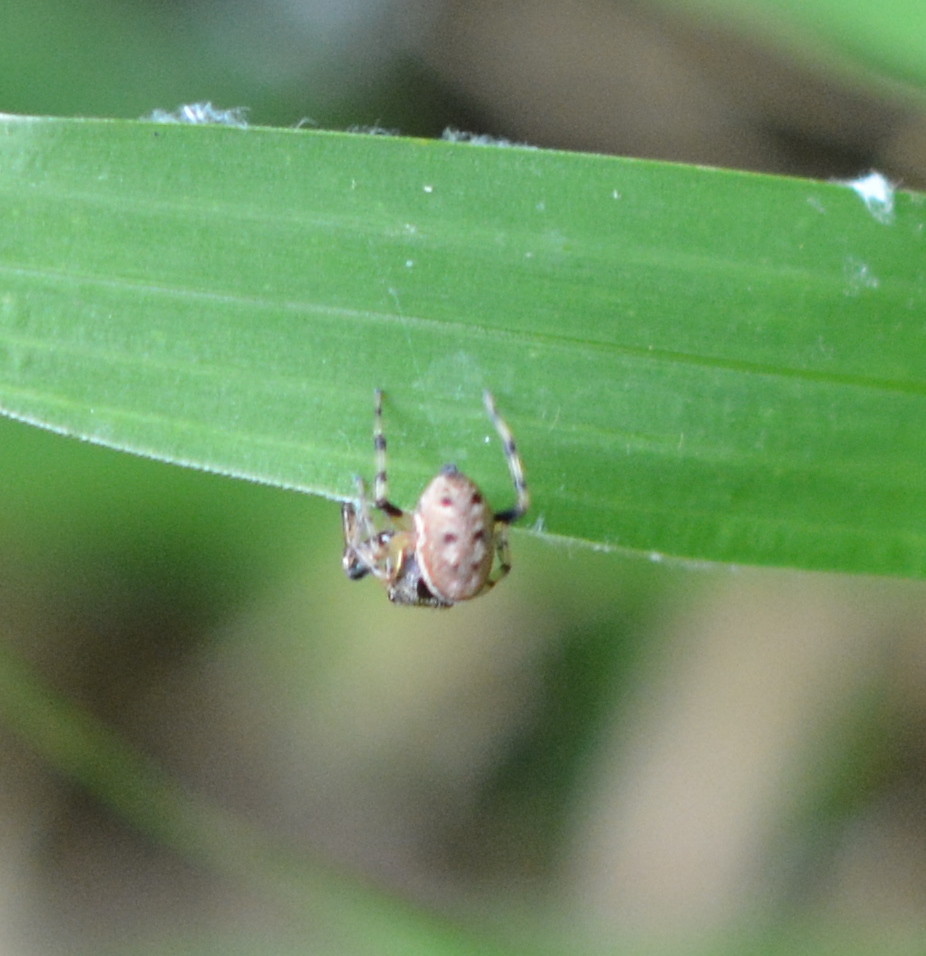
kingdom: Animalia
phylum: Arthropoda
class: Arachnida
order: Araneae
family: Salticidae
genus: Zygoballus
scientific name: Zygoballus rufipes
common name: Jumping spiders
